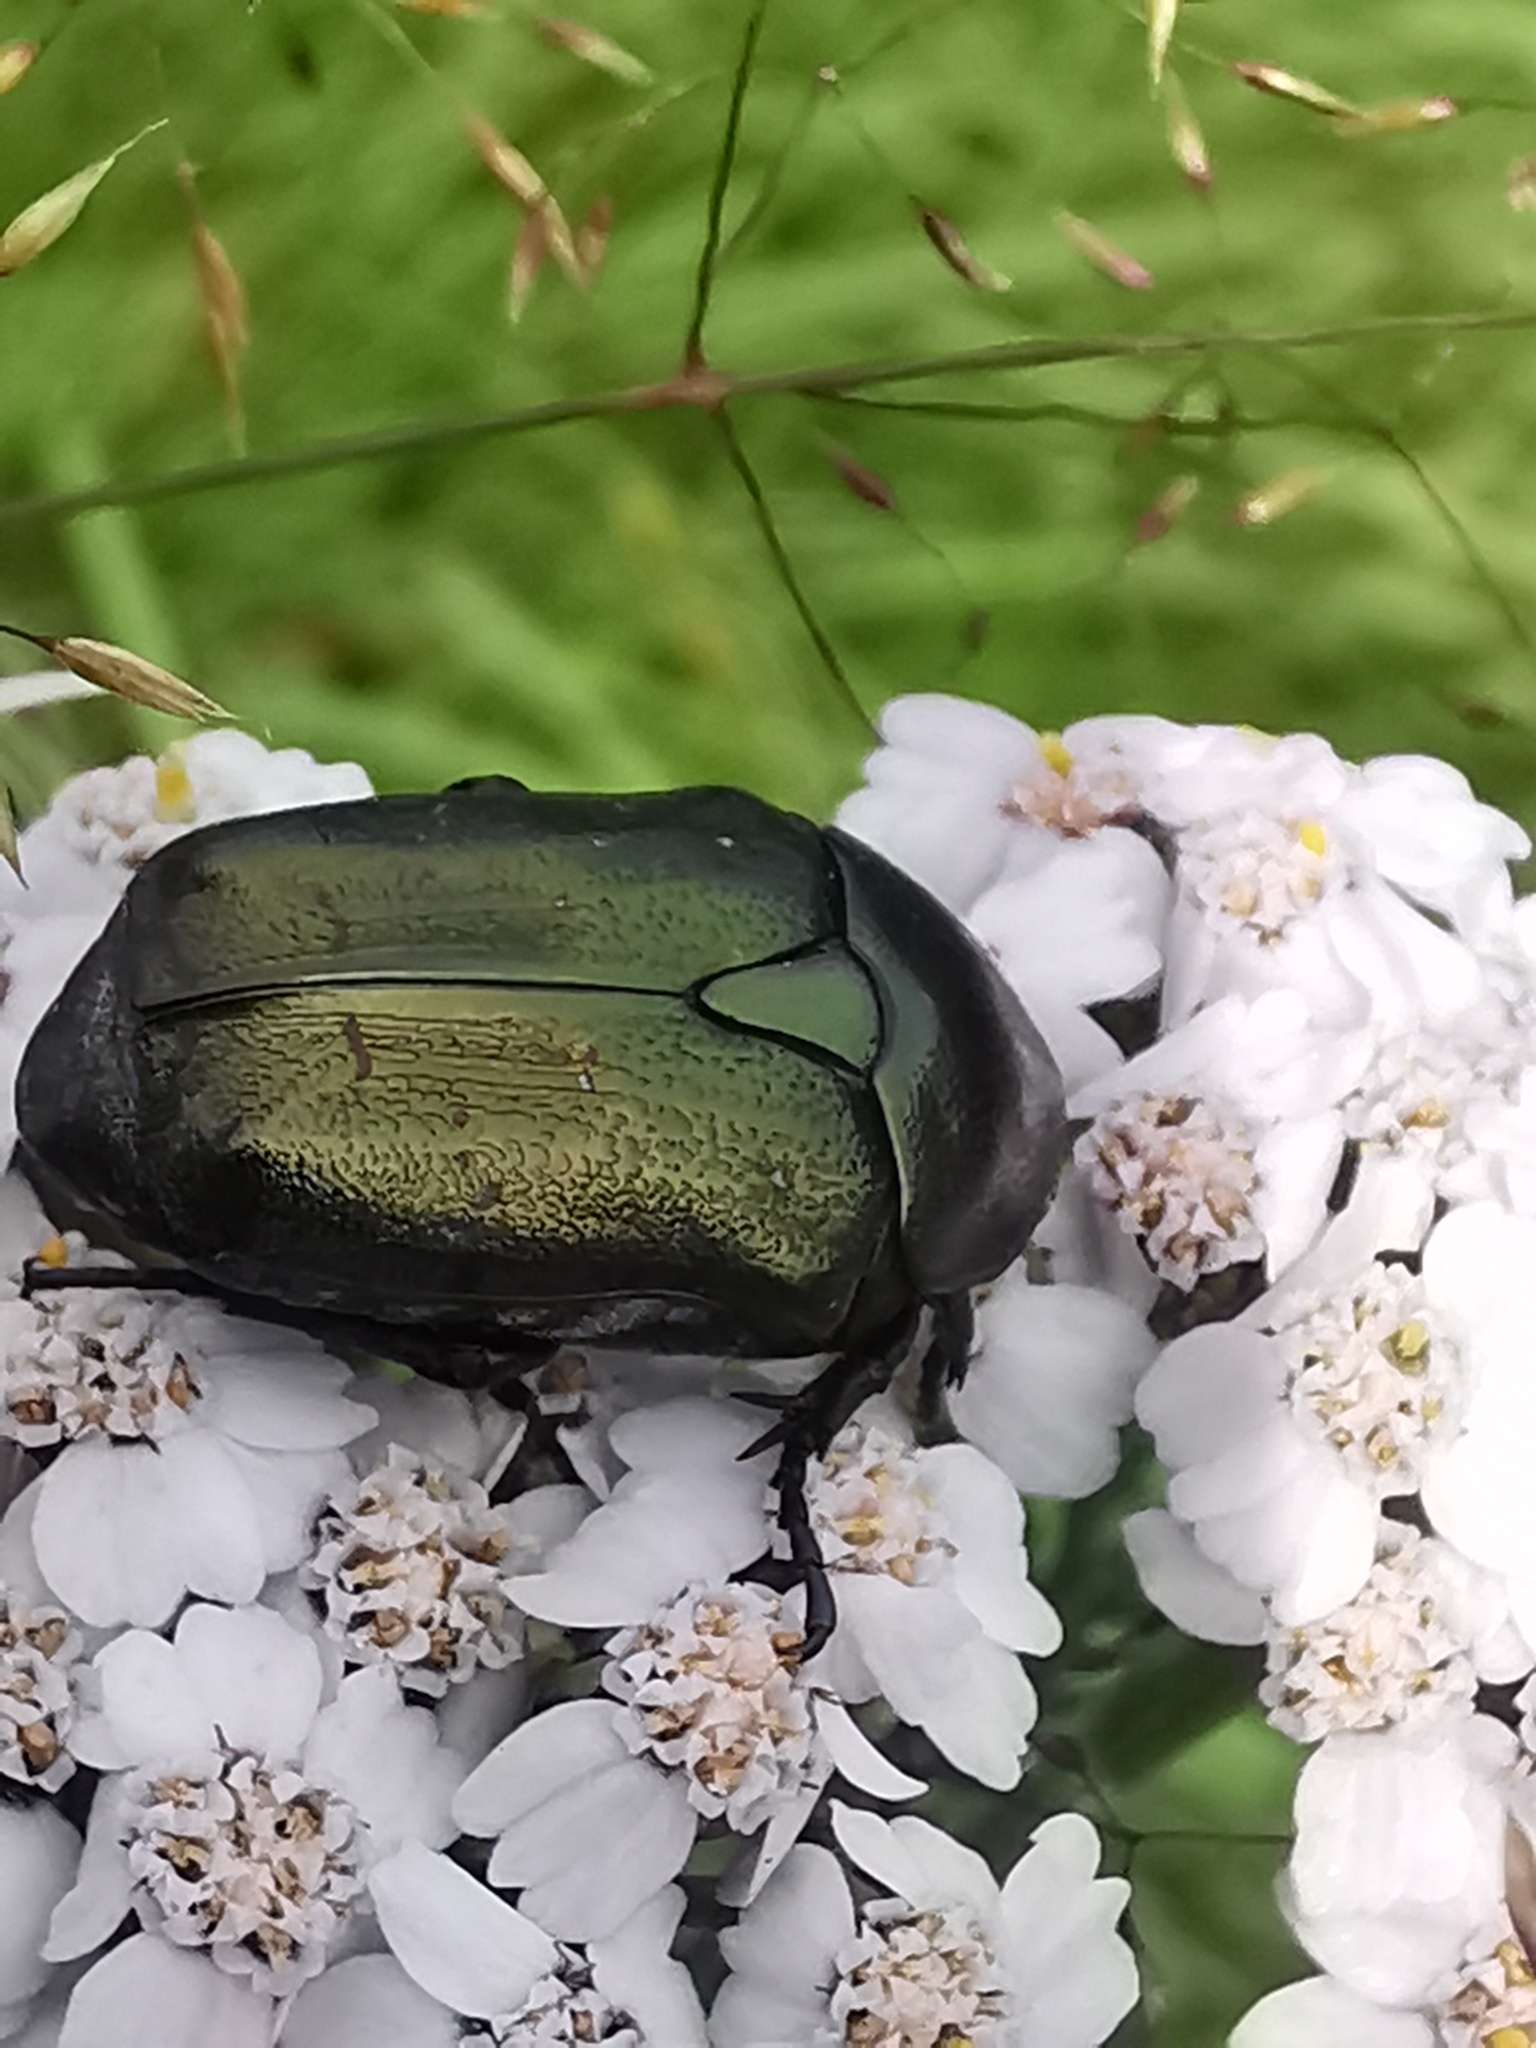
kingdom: Animalia
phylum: Arthropoda
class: Insecta
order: Coleoptera
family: Scarabaeidae
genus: Protaetia
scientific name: Protaetia cuprea
